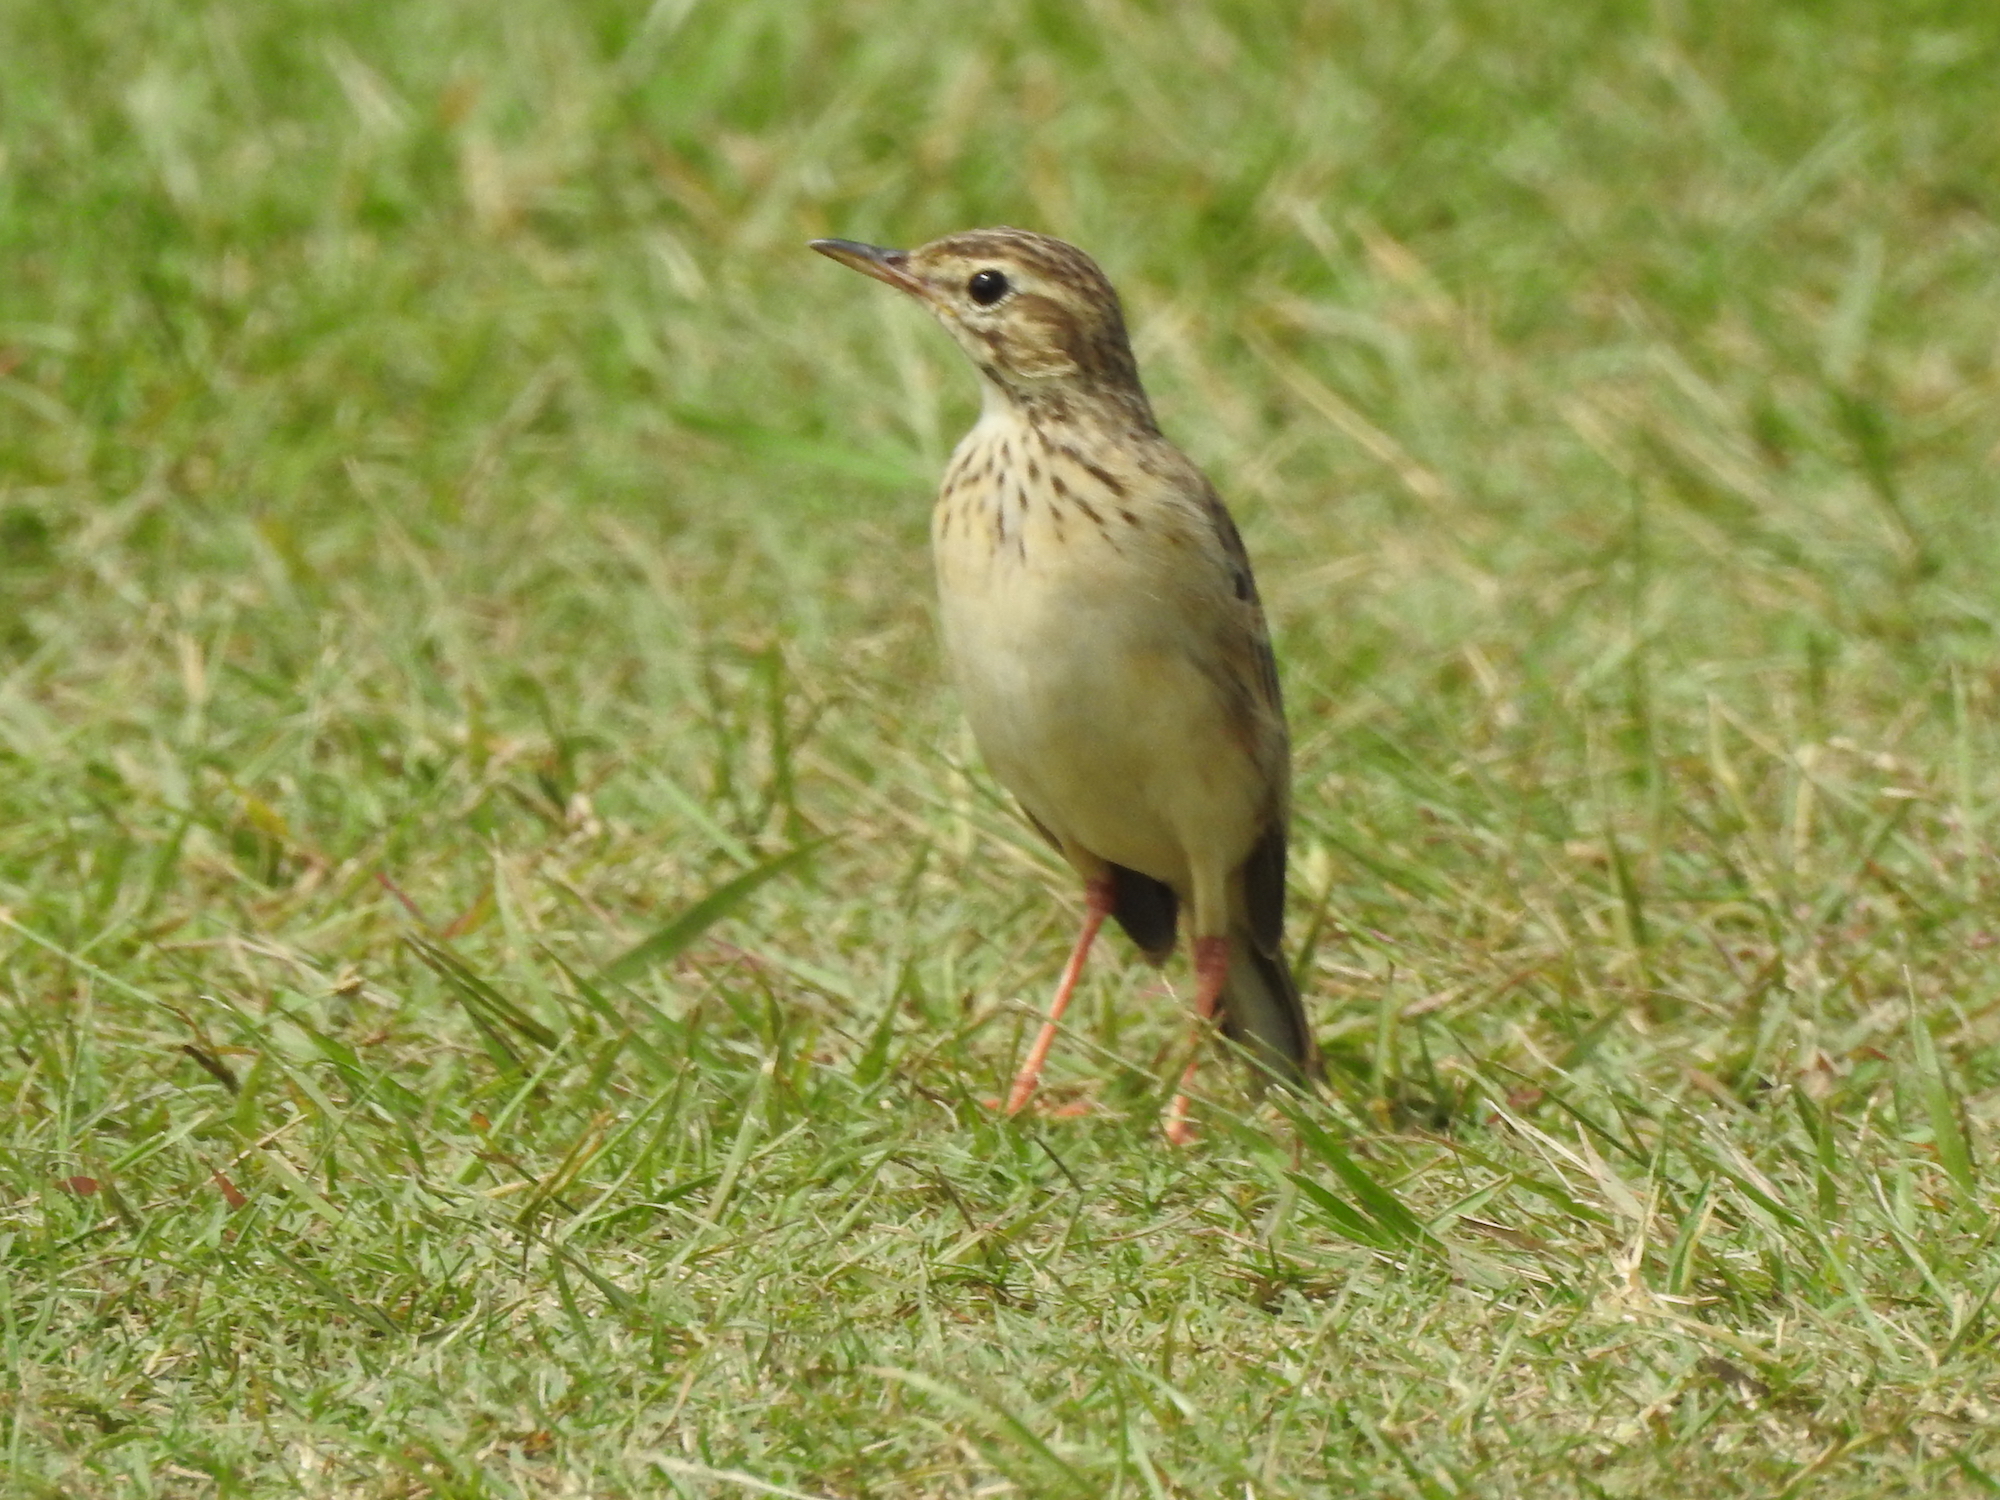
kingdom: Animalia
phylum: Chordata
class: Aves
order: Passeriformes
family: Motacillidae
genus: Anthus
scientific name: Anthus rufulus
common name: Paddyfield pipit
